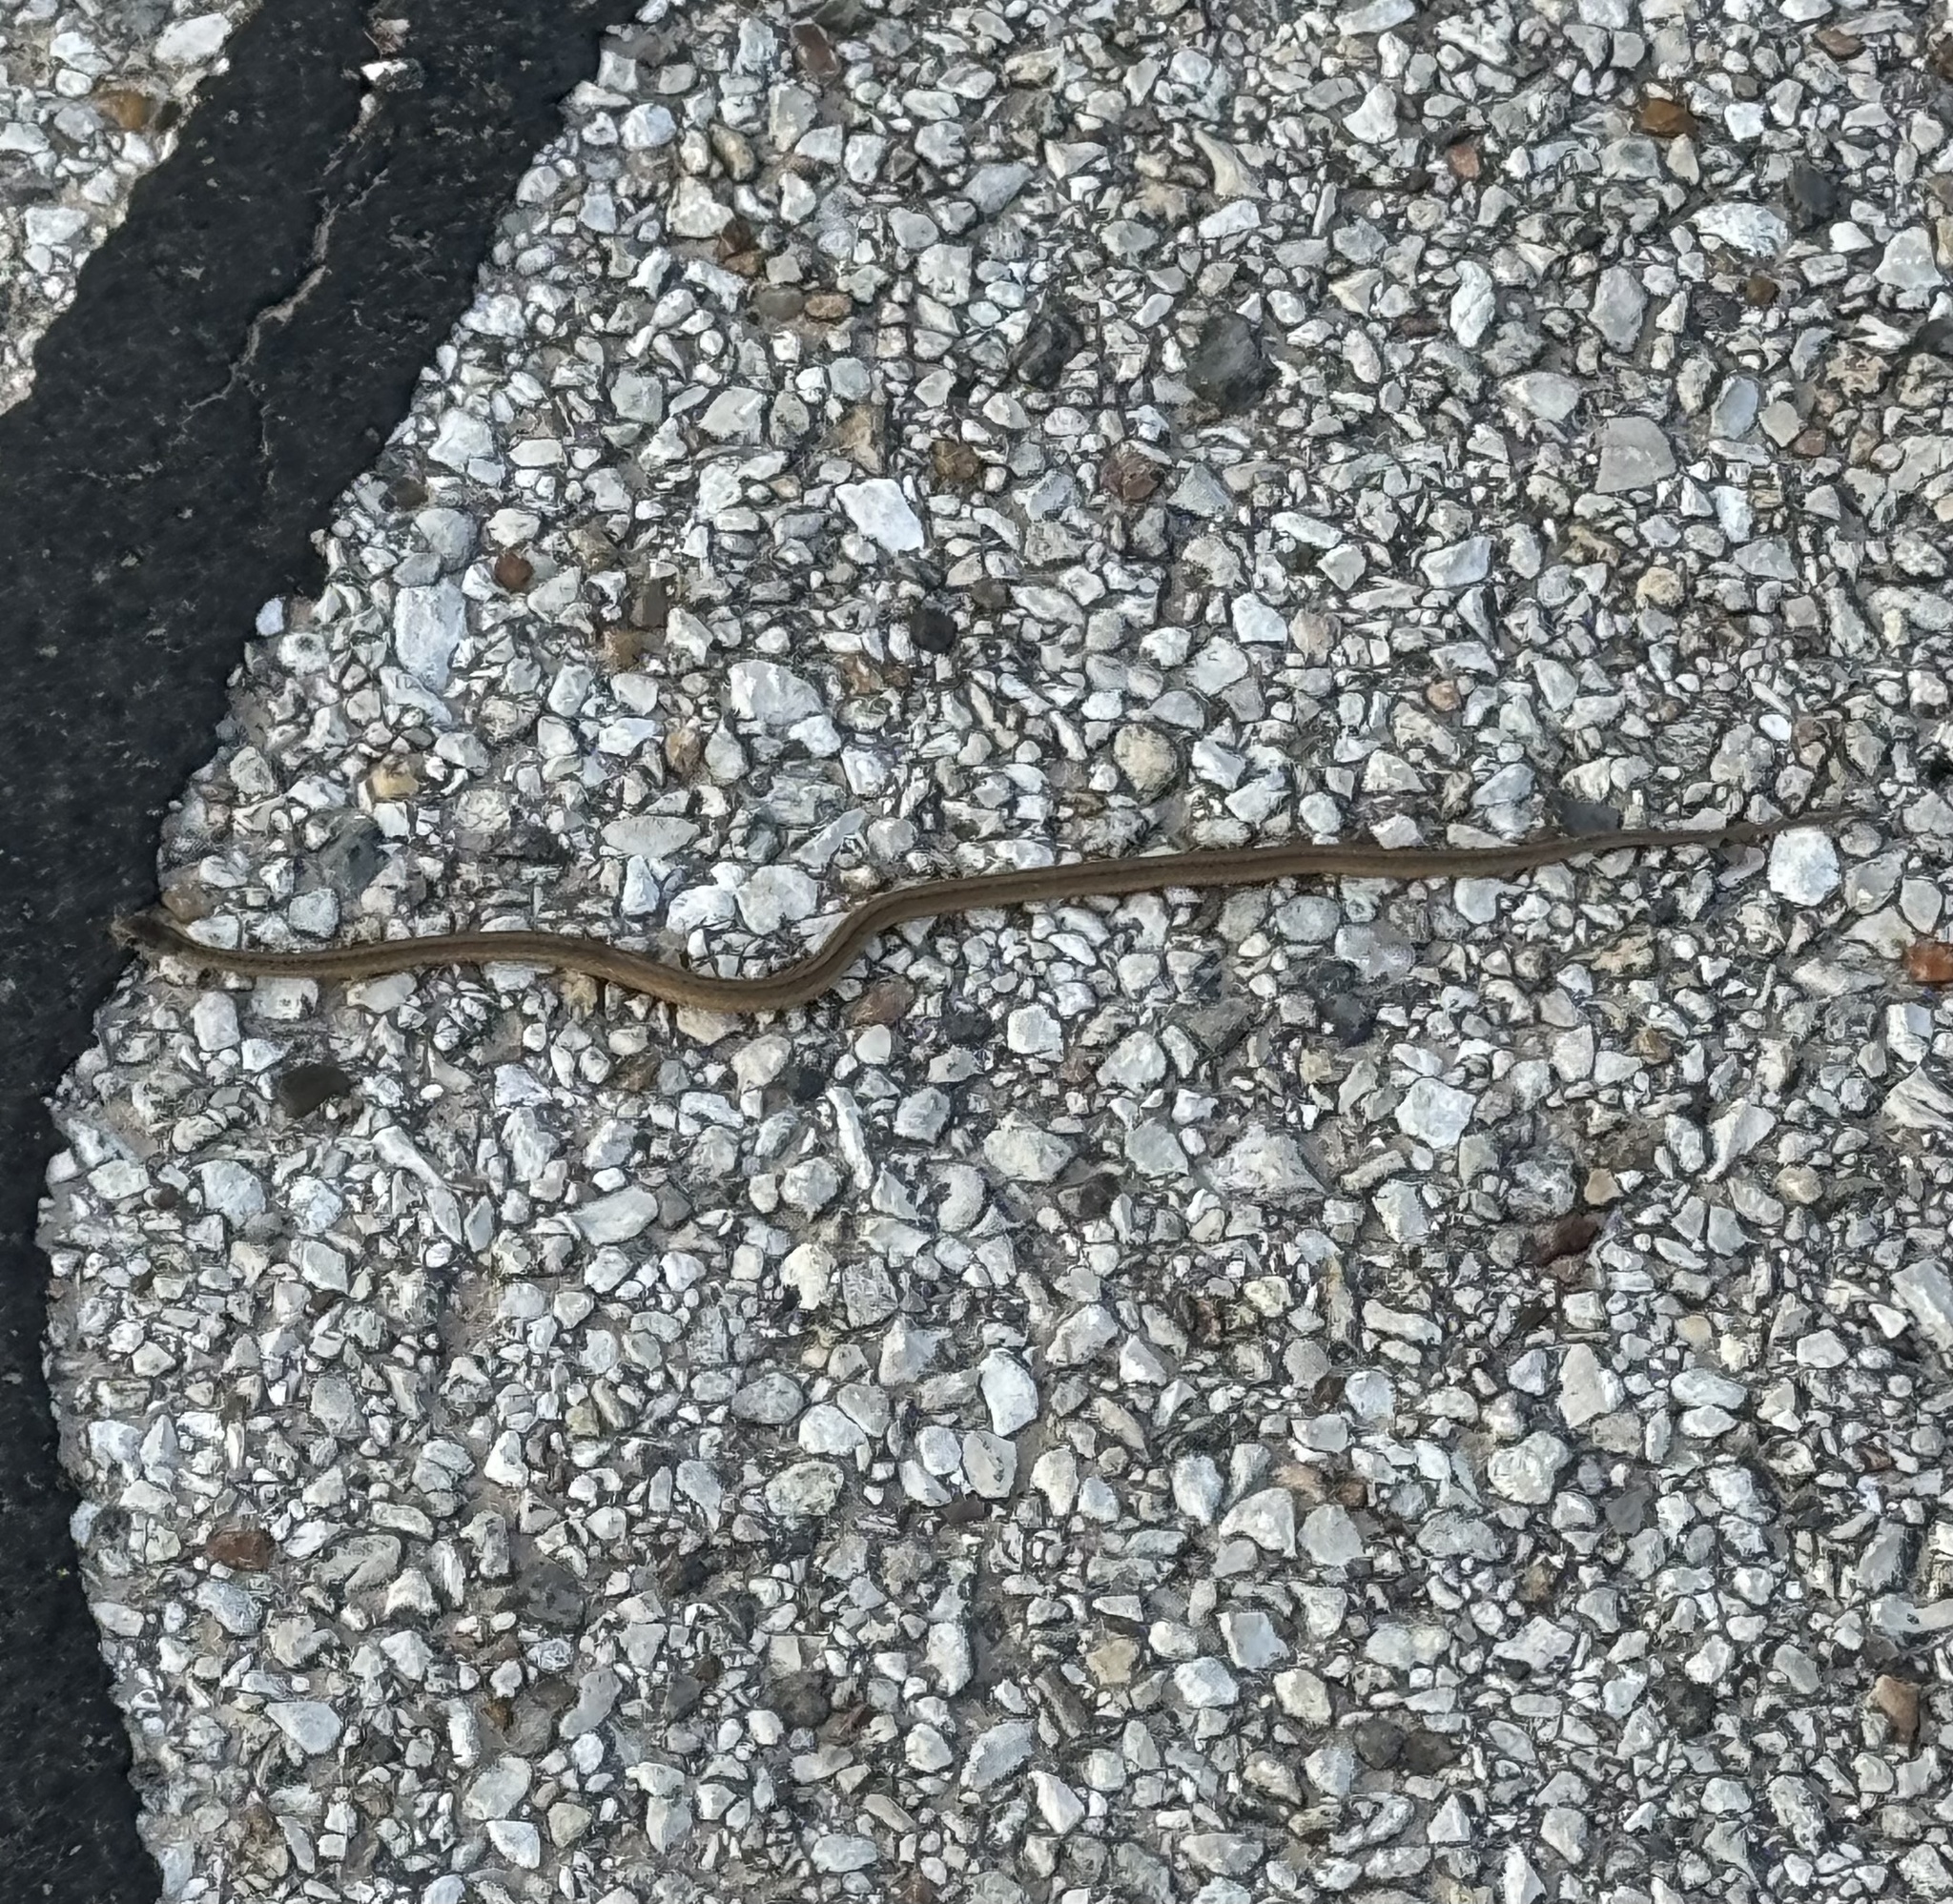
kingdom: Animalia
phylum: Chordata
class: Squamata
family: Colubridae
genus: Storeria
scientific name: Storeria dekayi
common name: (dekay’s) brown snake
